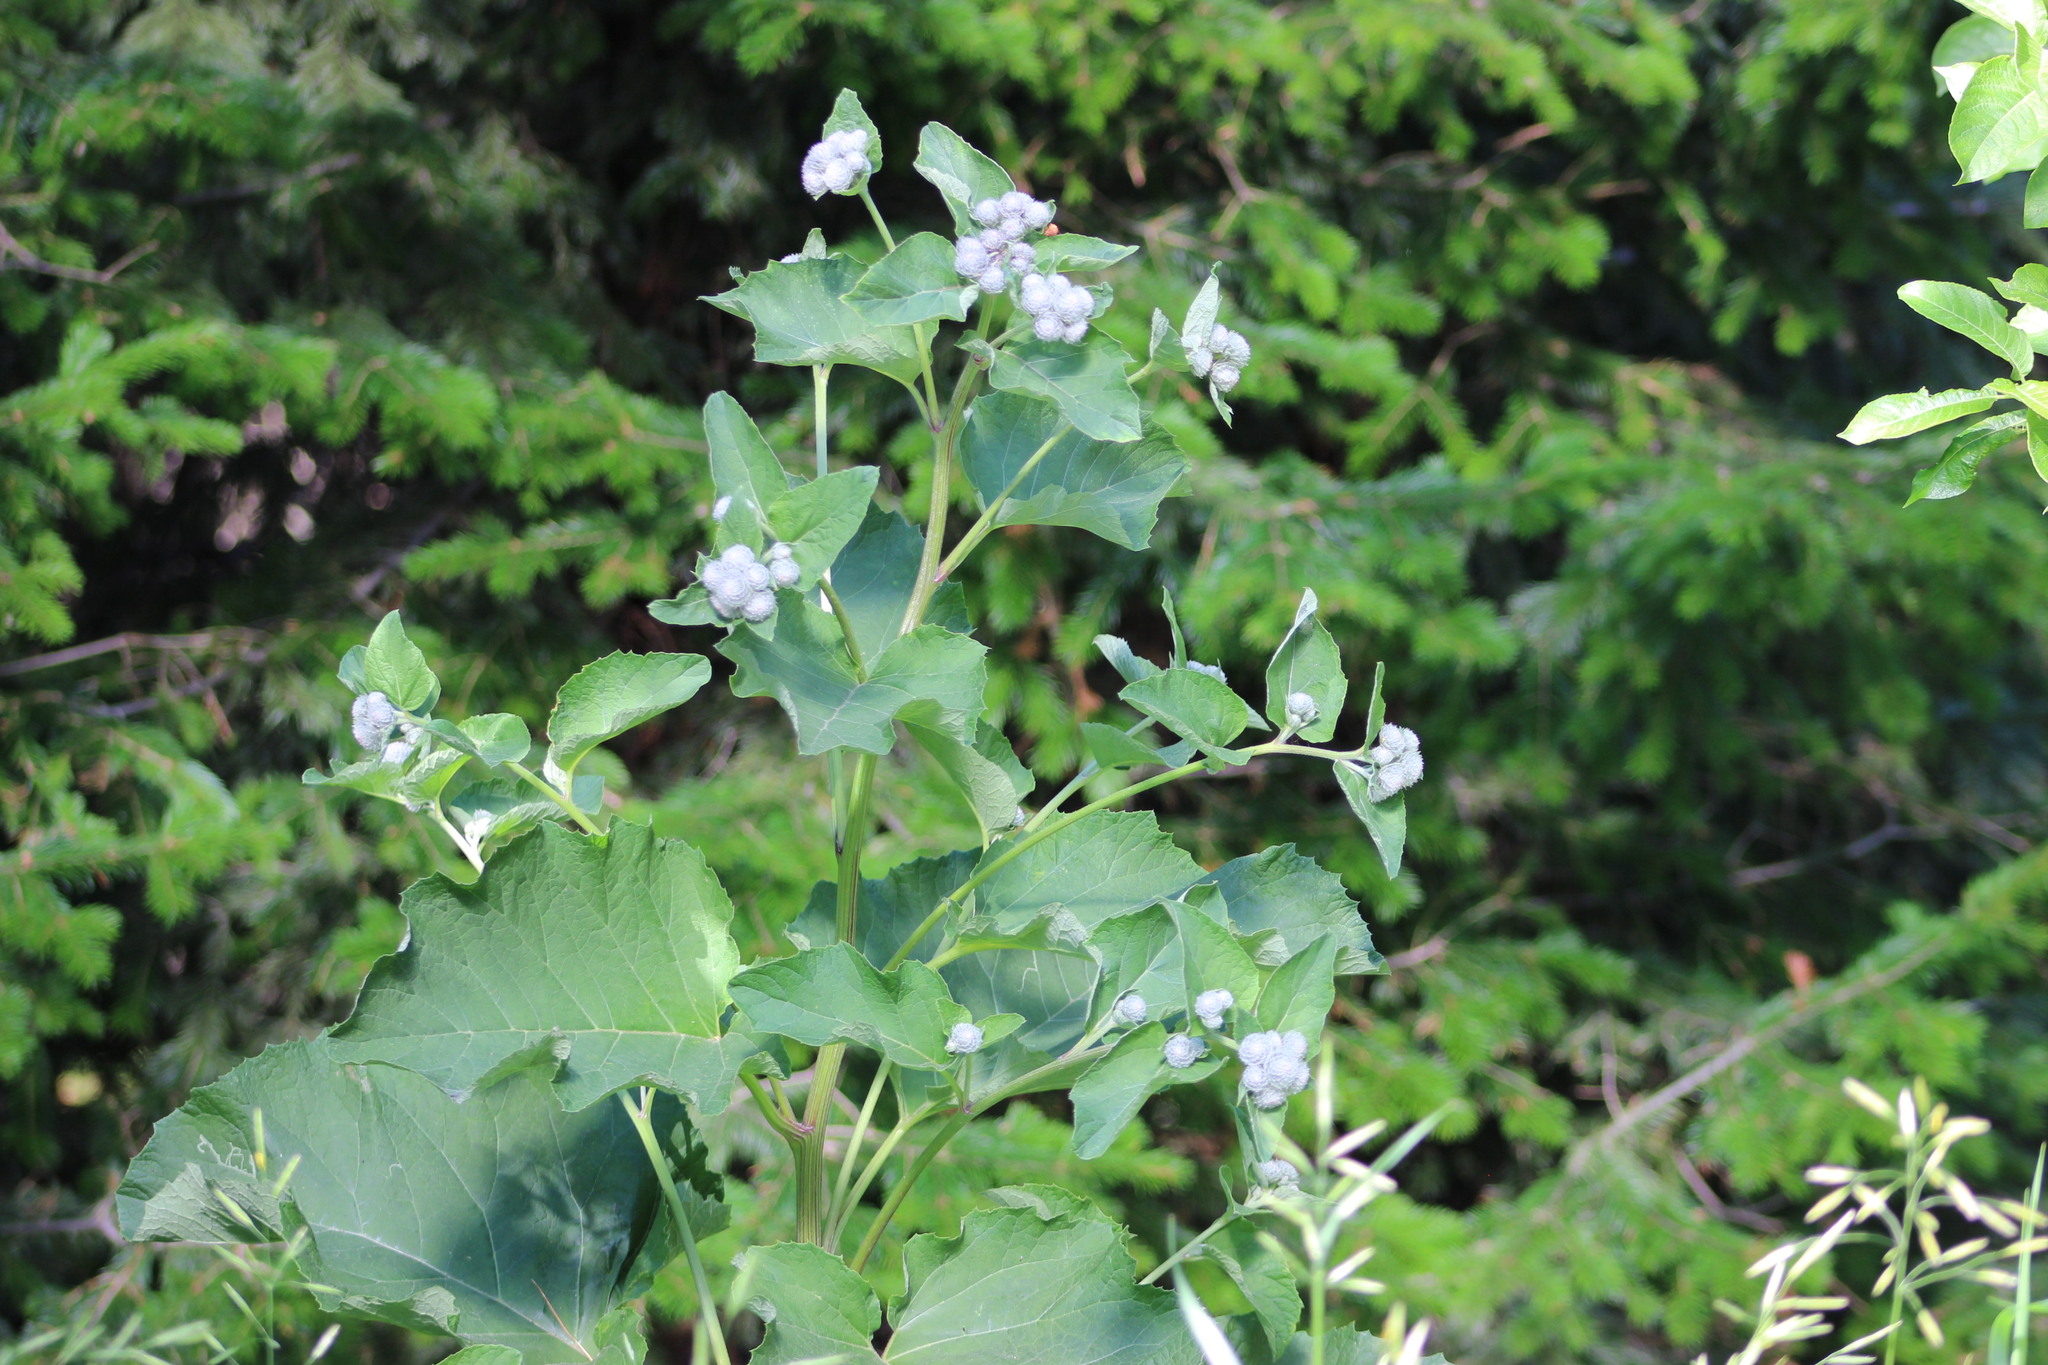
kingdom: Plantae
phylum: Tracheophyta
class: Magnoliopsida
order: Asterales
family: Asteraceae
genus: Arctium
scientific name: Arctium tomentosum
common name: Woolly burdock
